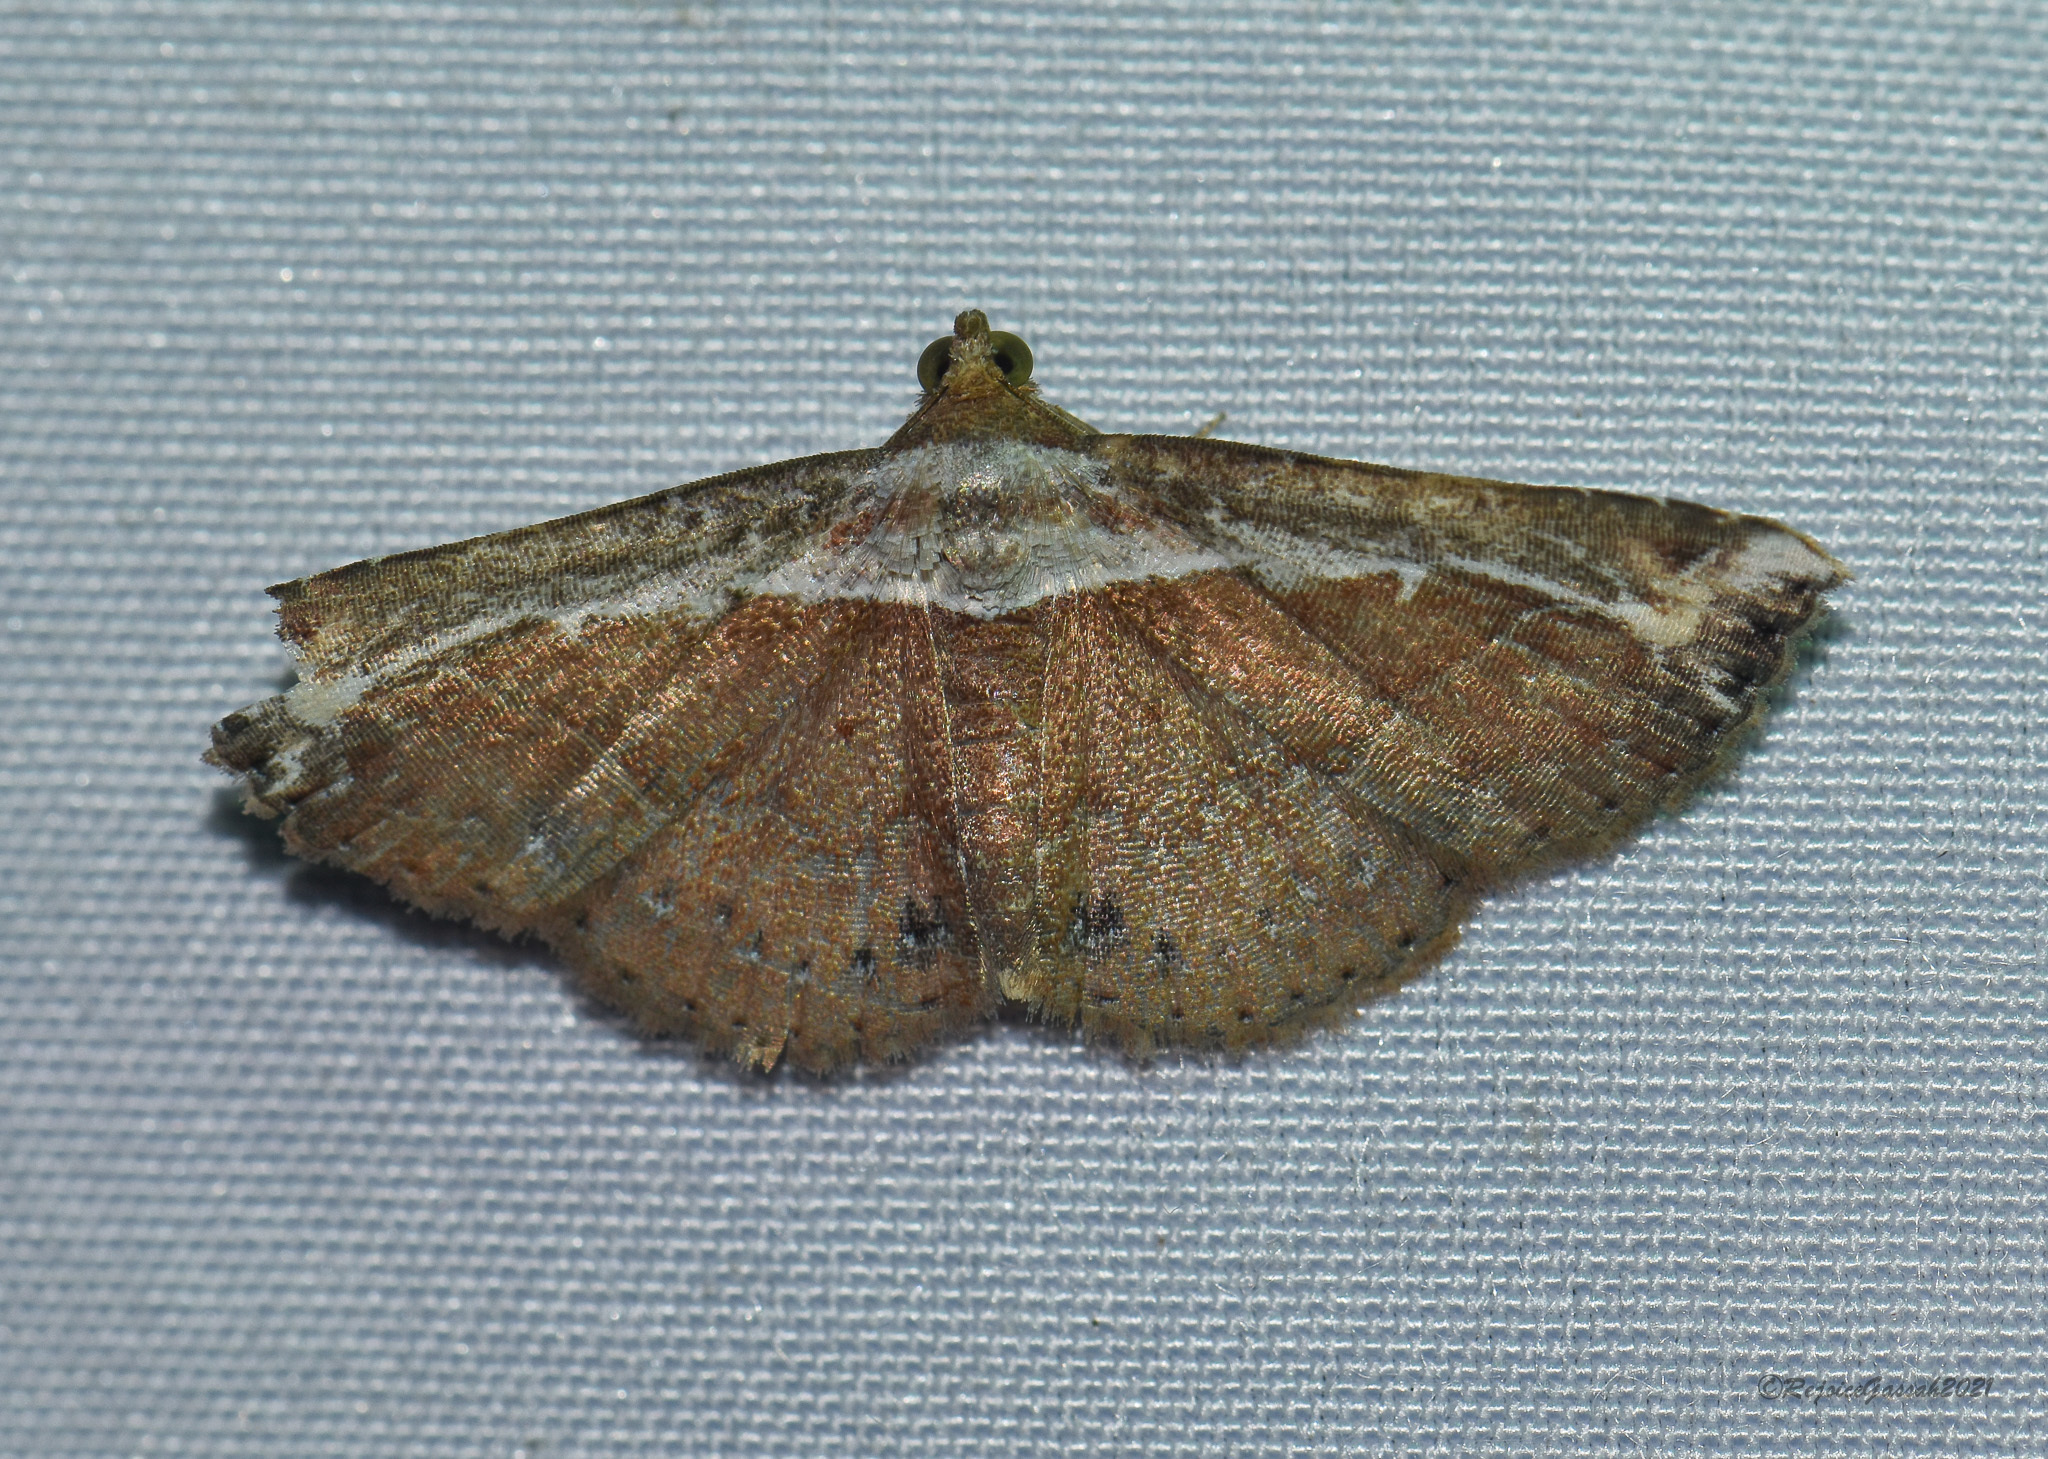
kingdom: Animalia
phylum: Arthropoda
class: Insecta
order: Lepidoptera
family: Erebidae
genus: Zurobata
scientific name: Zurobata vacillans
